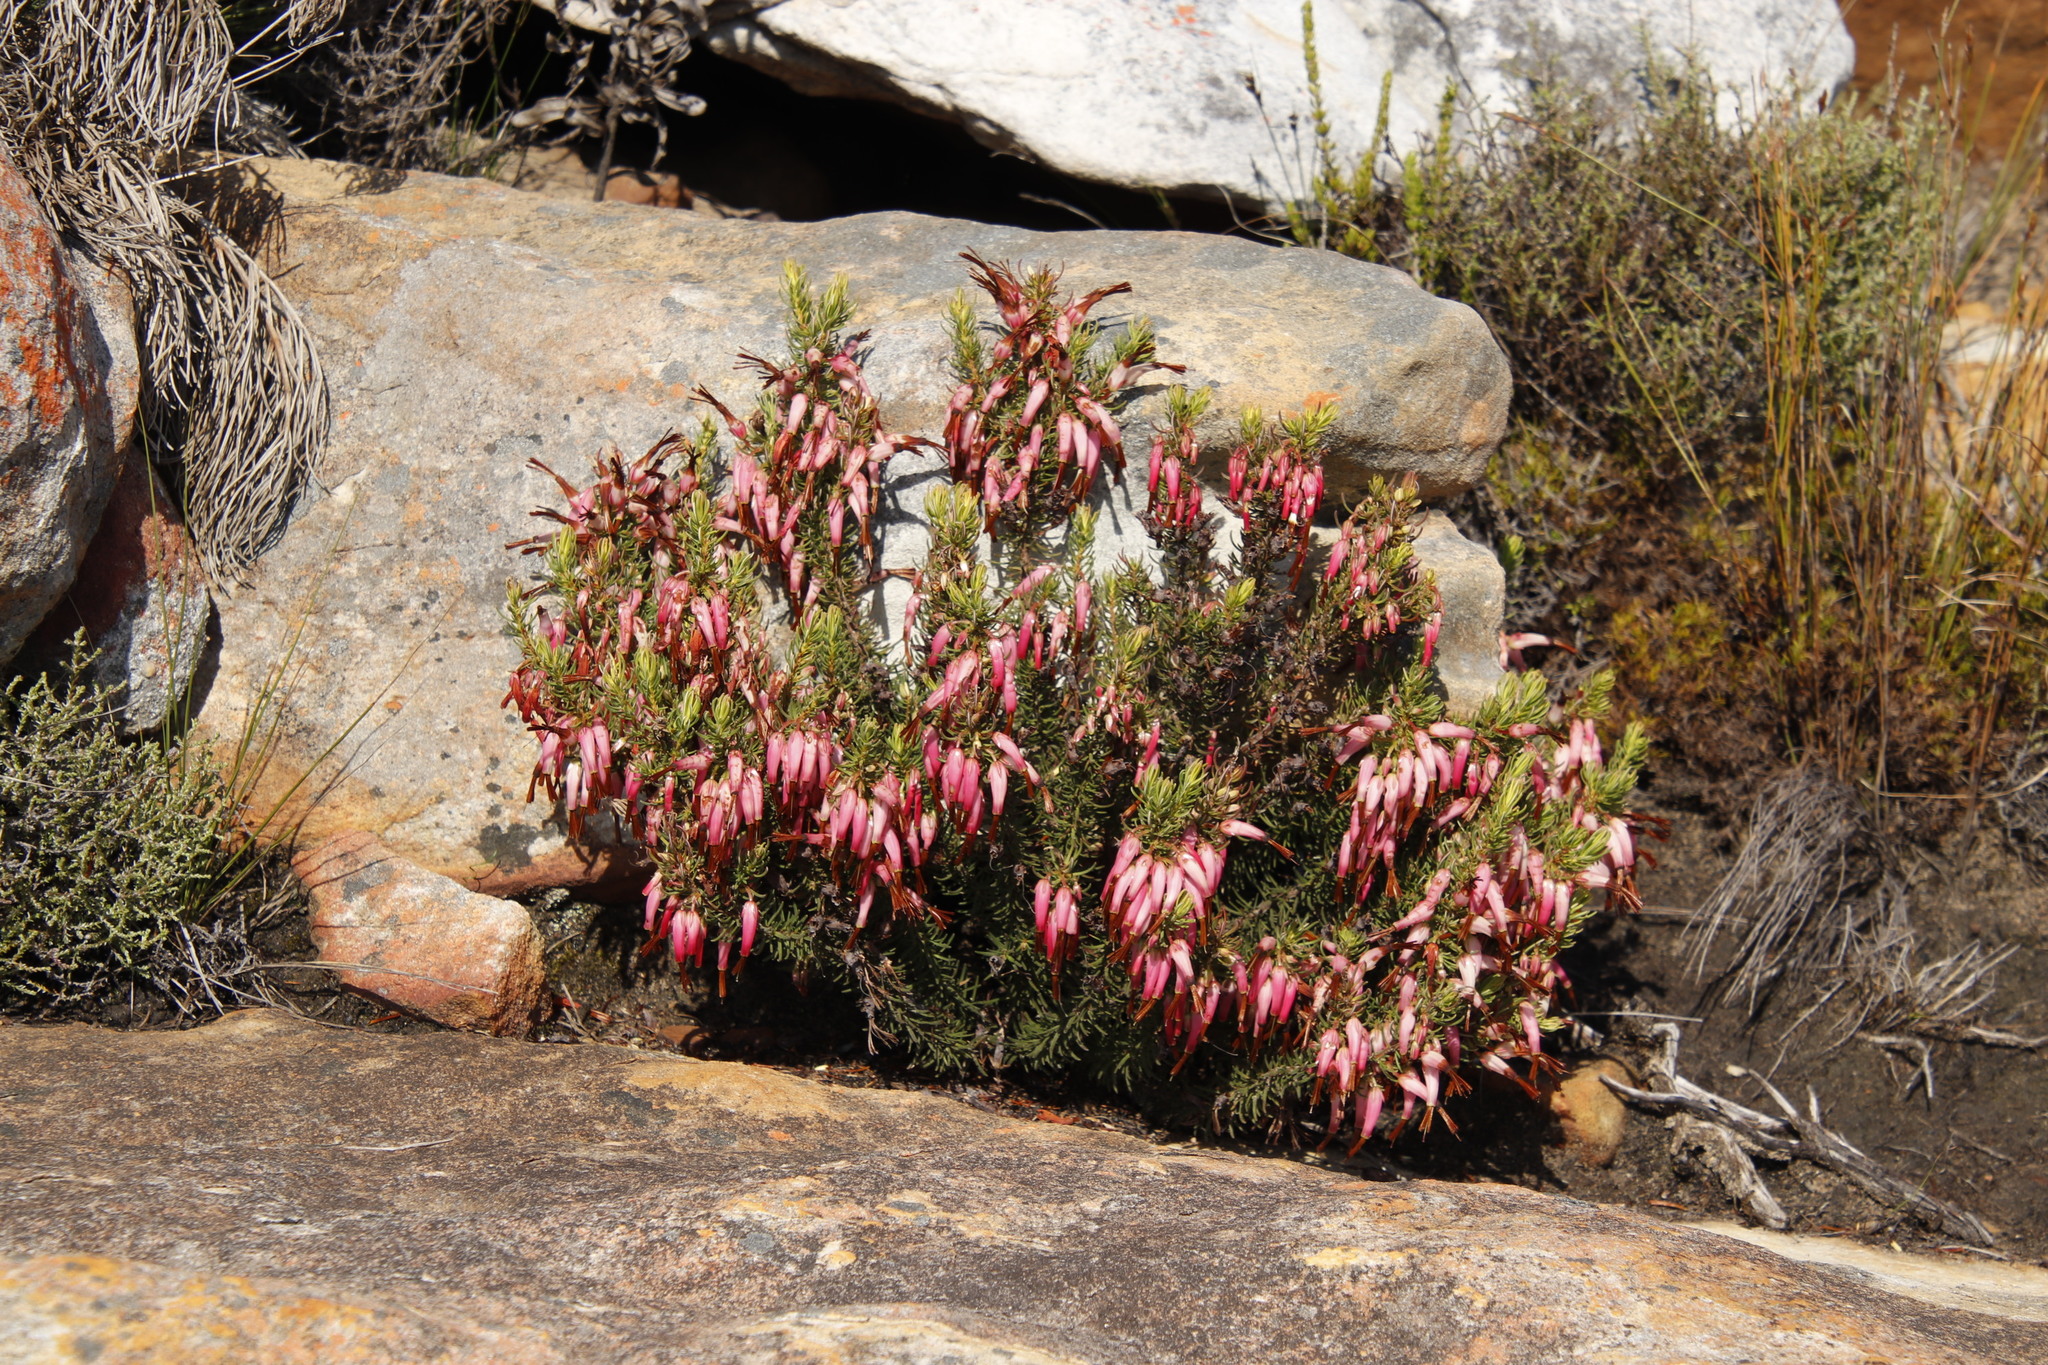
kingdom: Plantae
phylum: Tracheophyta
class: Magnoliopsida
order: Ericales
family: Ericaceae
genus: Erica
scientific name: Erica plukenetii
